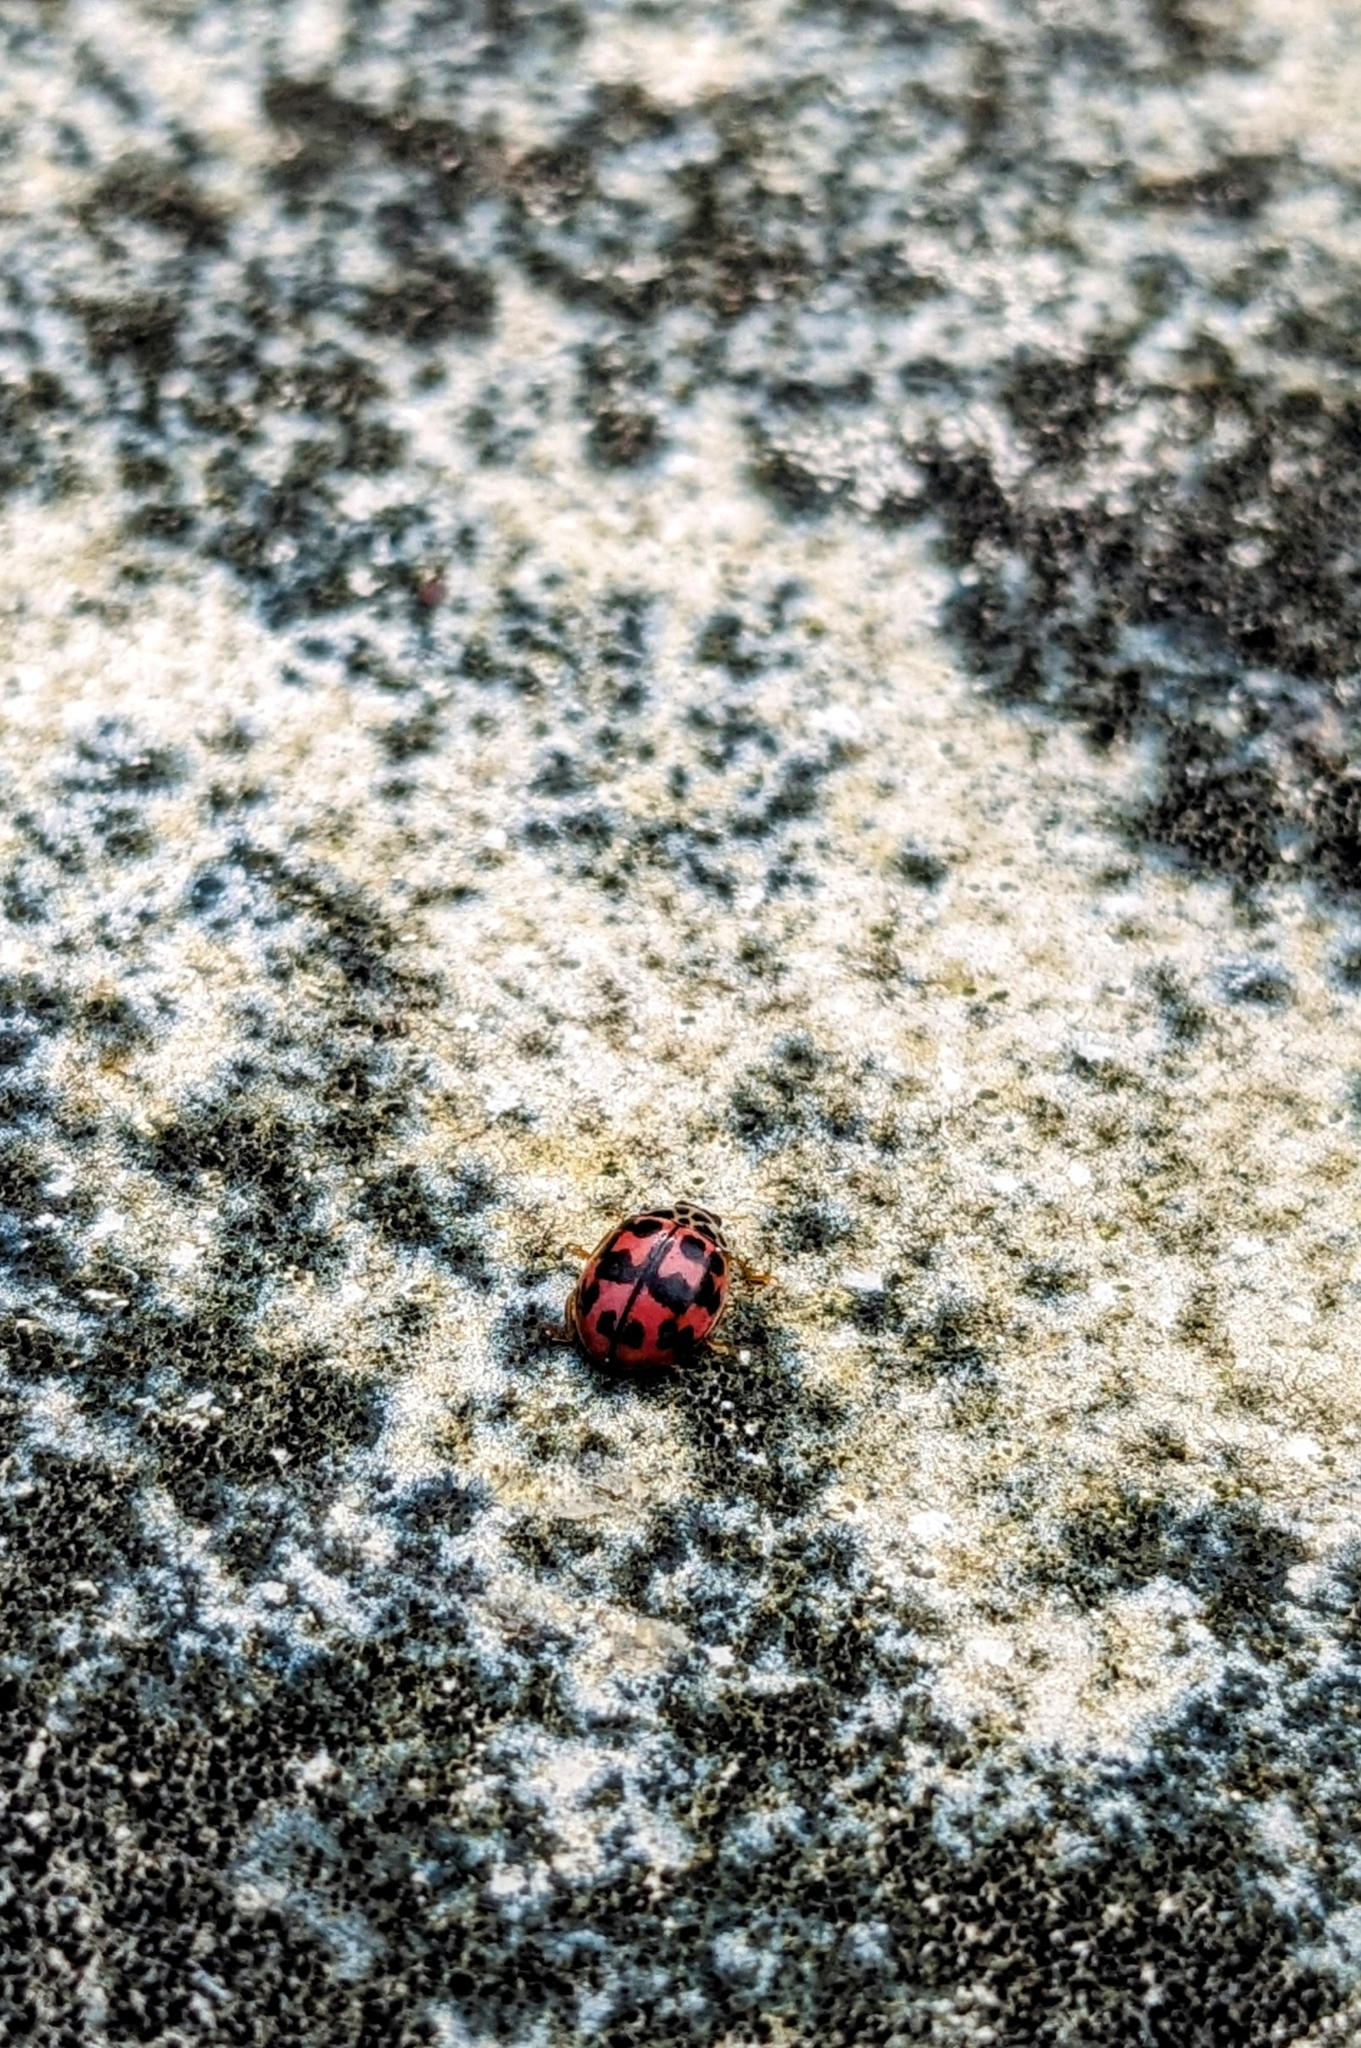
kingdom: Animalia
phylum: Arthropoda
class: Insecta
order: Coleoptera
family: Coccinellidae
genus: Oenopia
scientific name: Oenopia conglobata
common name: Ladybird beetle
